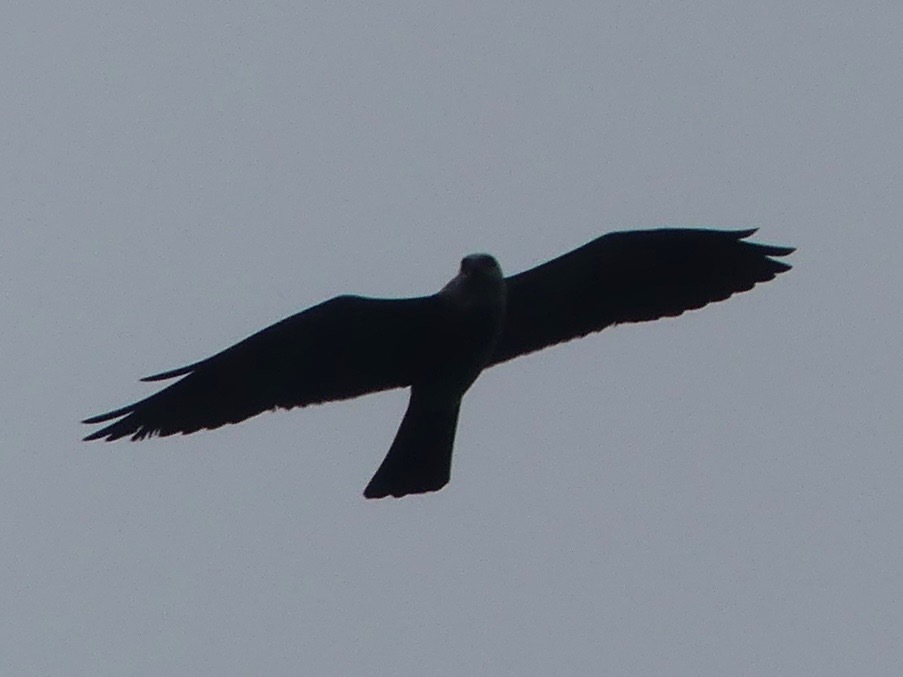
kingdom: Animalia
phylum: Chordata
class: Aves
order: Accipitriformes
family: Accipitridae
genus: Ictinia
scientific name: Ictinia mississippiensis
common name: Mississippi kite
